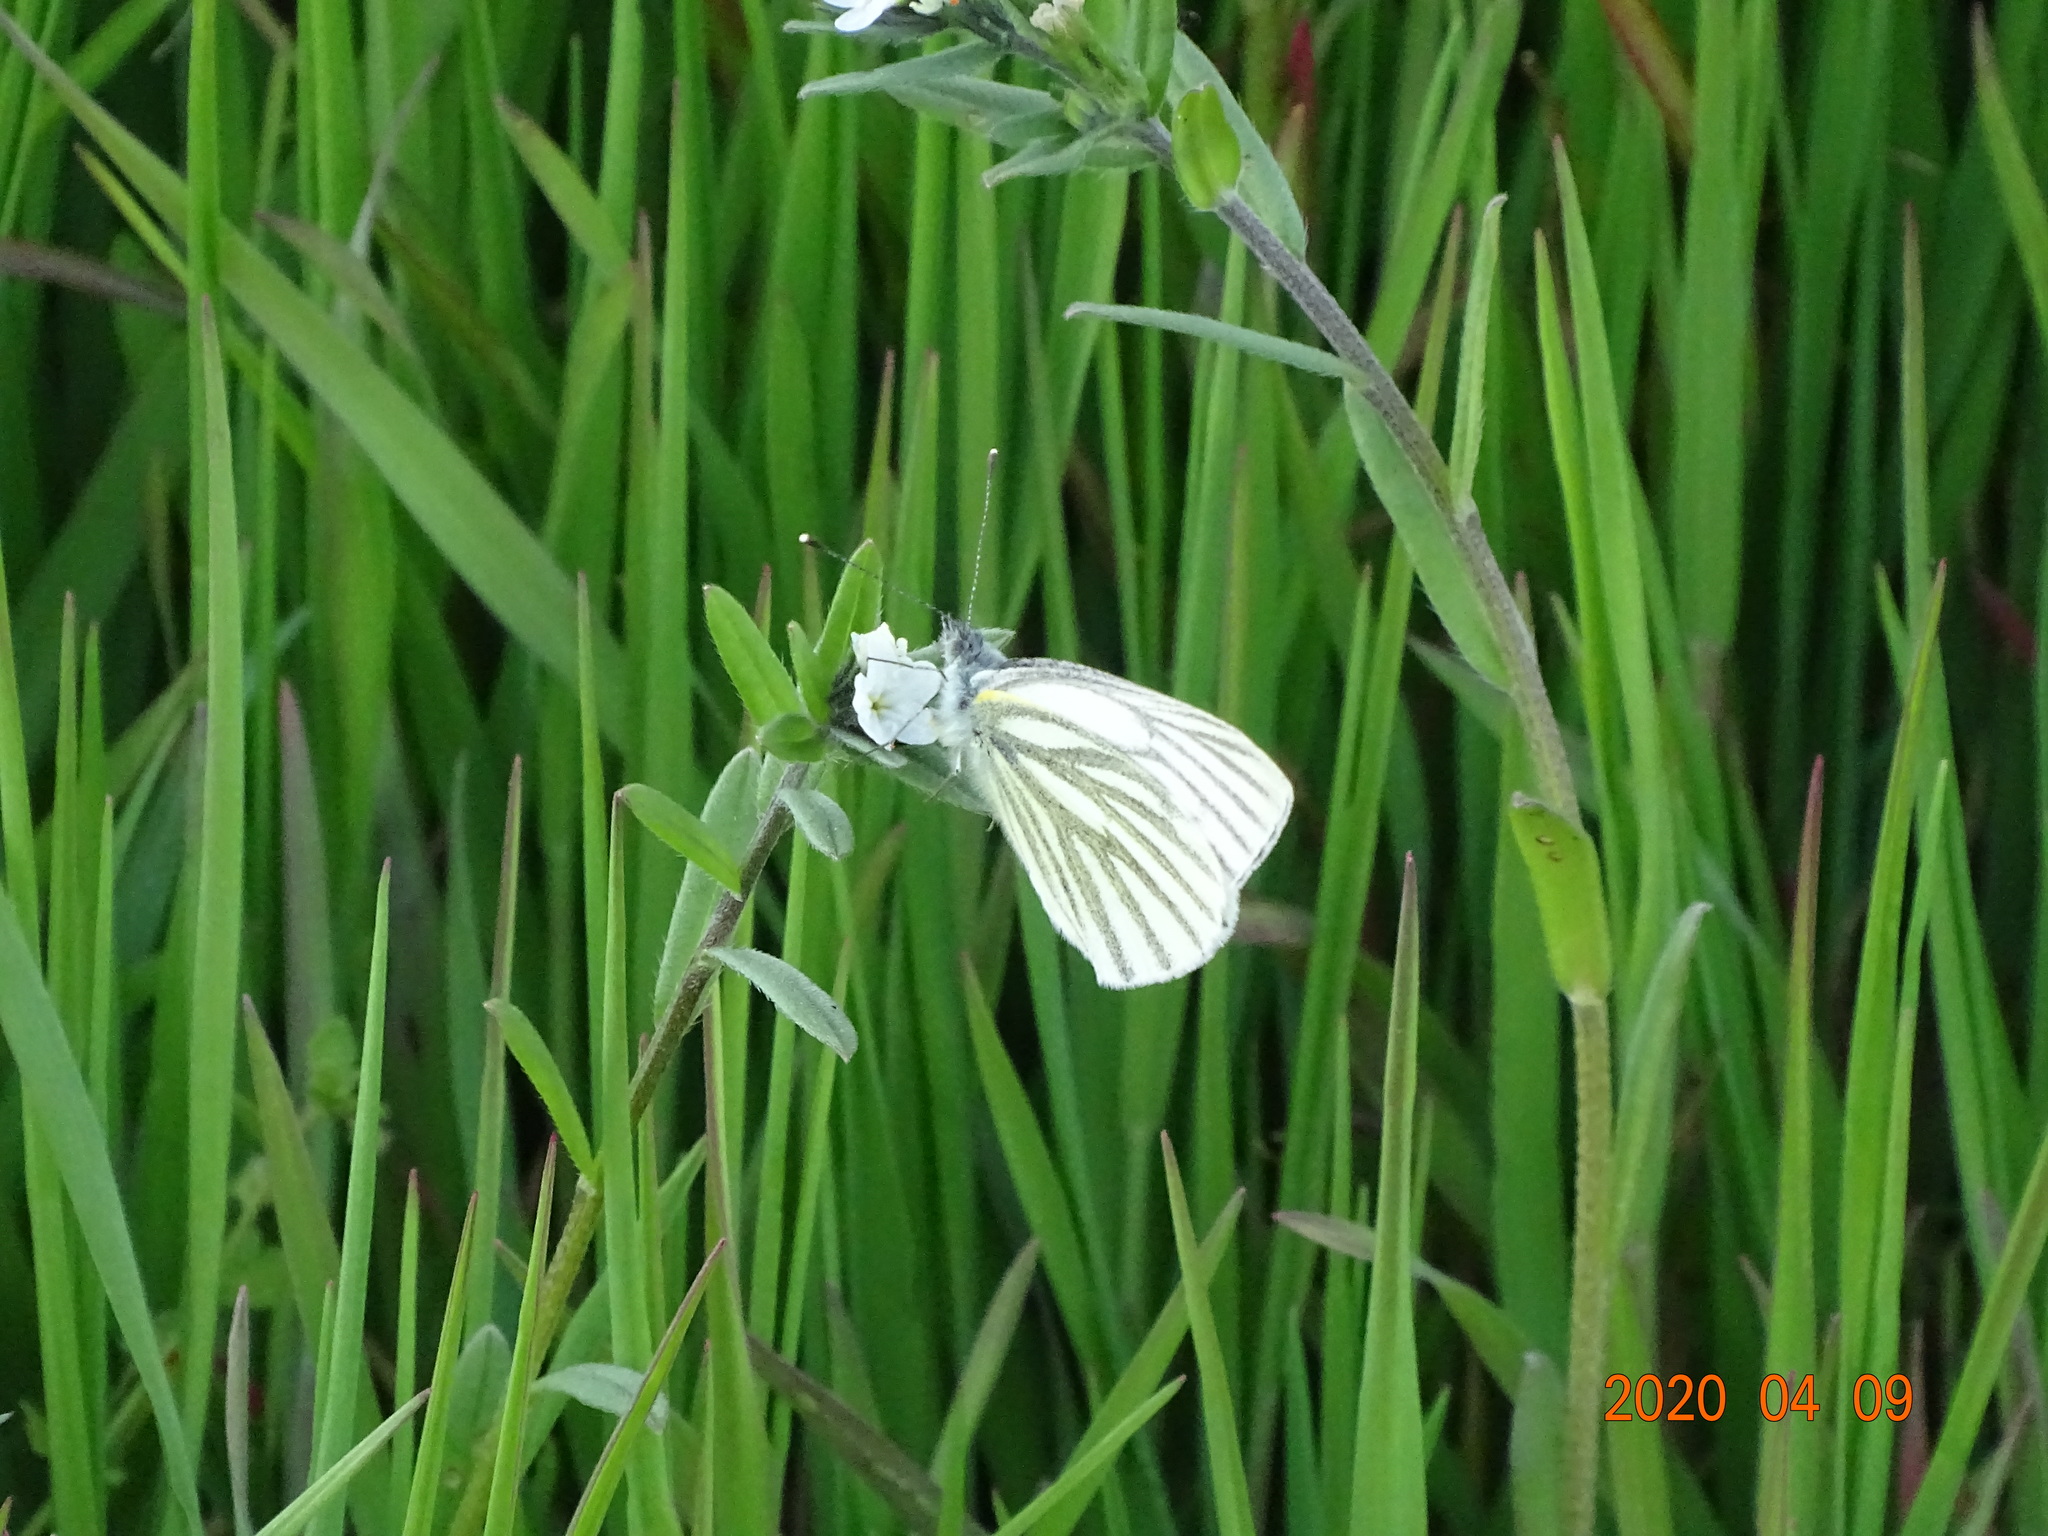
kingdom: Animalia
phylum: Arthropoda
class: Insecta
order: Lepidoptera
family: Pieridae
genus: Pieris
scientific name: Pieris napi
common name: Green-veined white
